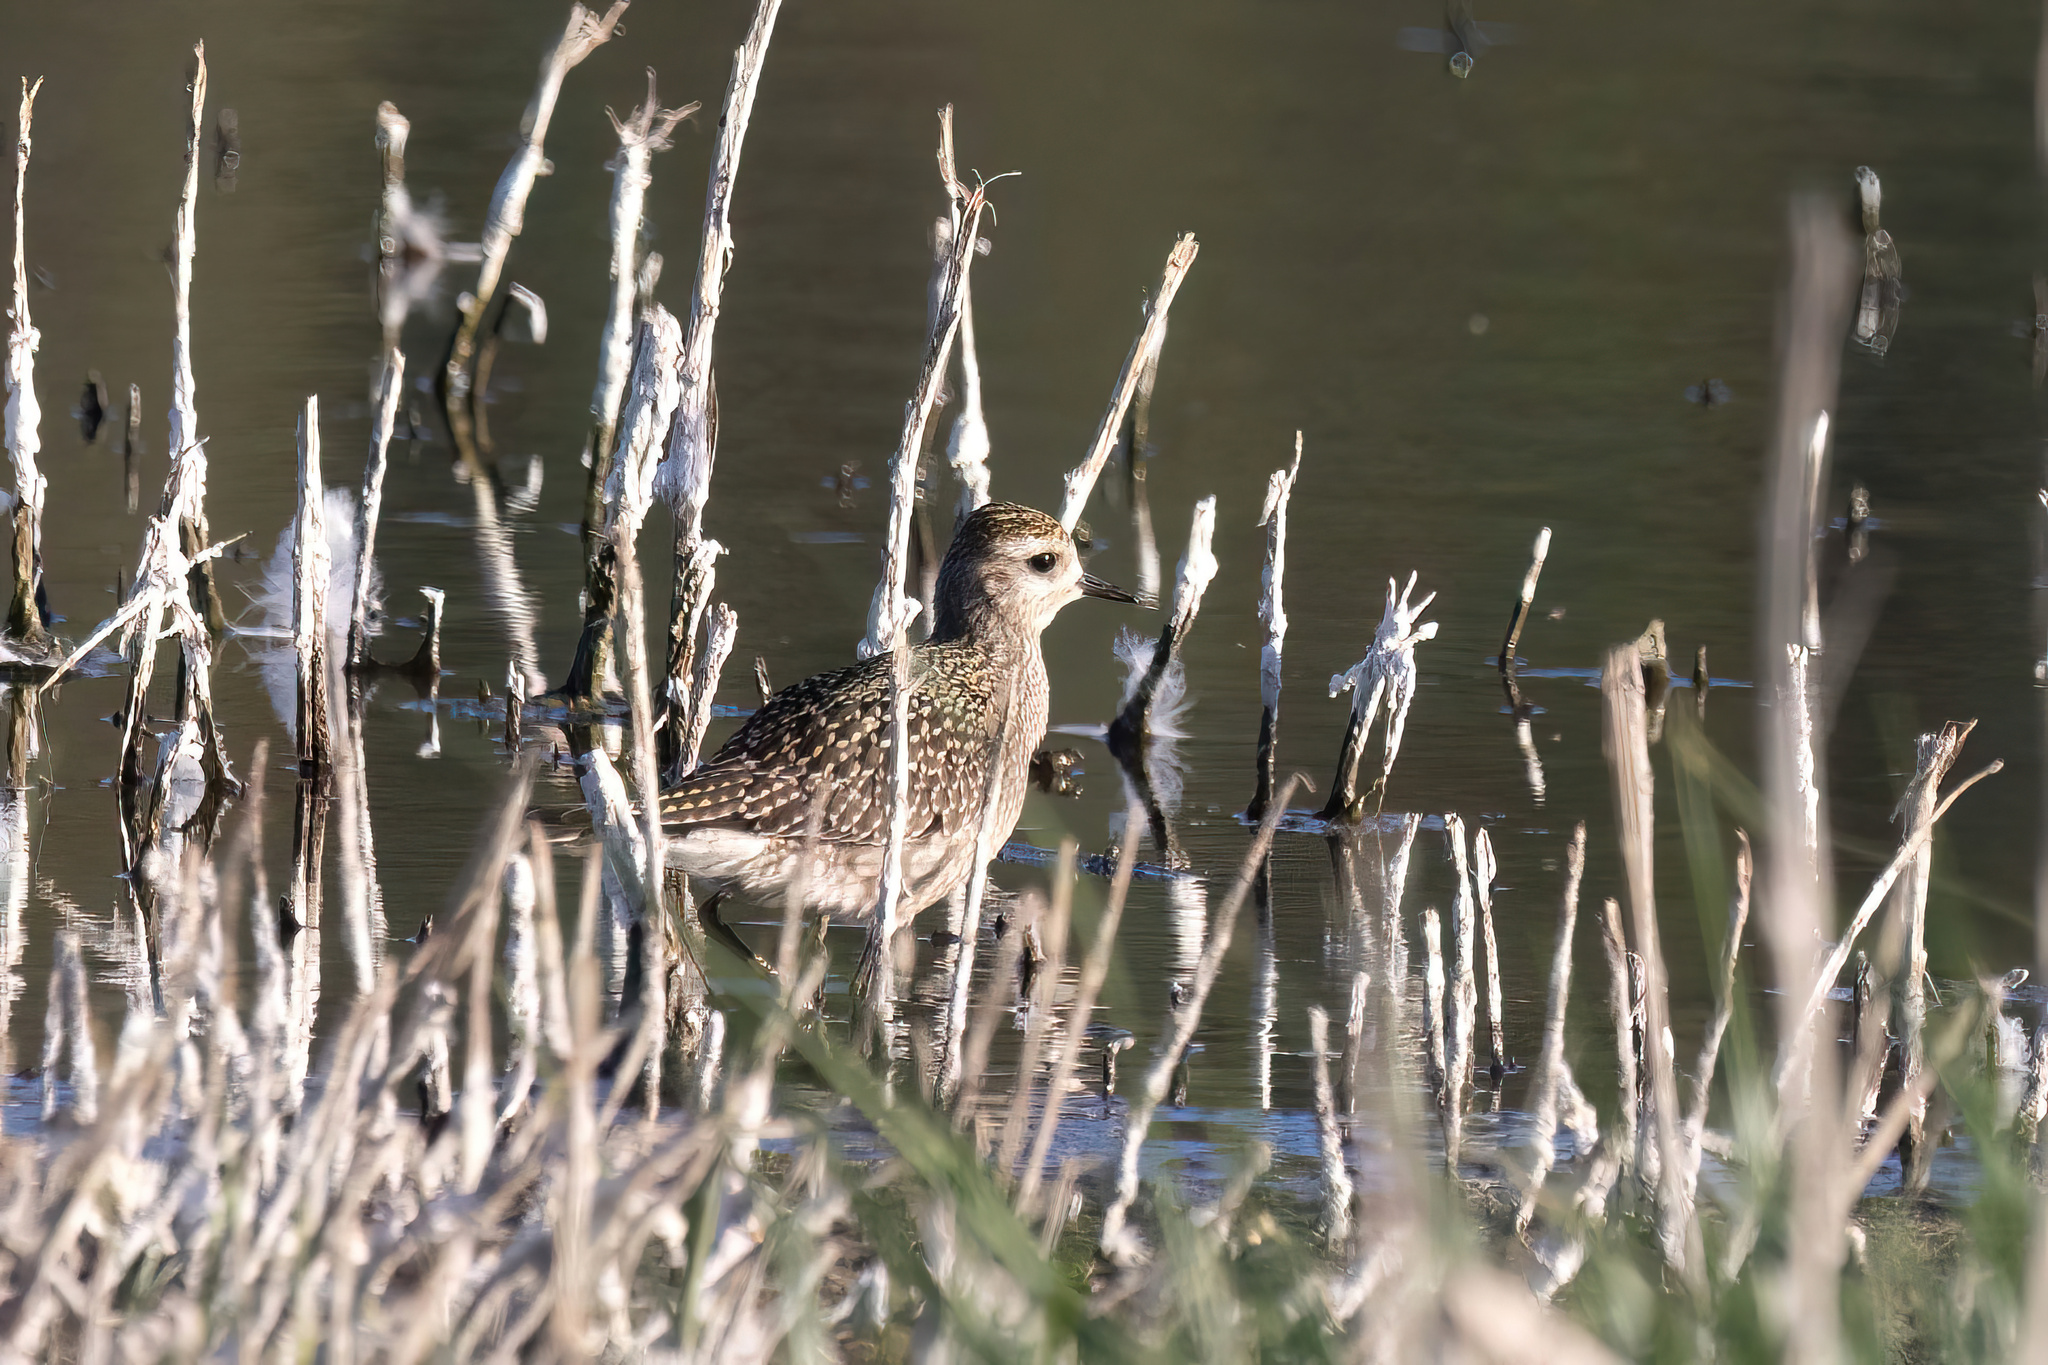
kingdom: Animalia
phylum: Chordata
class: Aves
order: Charadriiformes
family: Charadriidae
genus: Pluvialis
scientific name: Pluvialis dominica
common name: American golden plover
